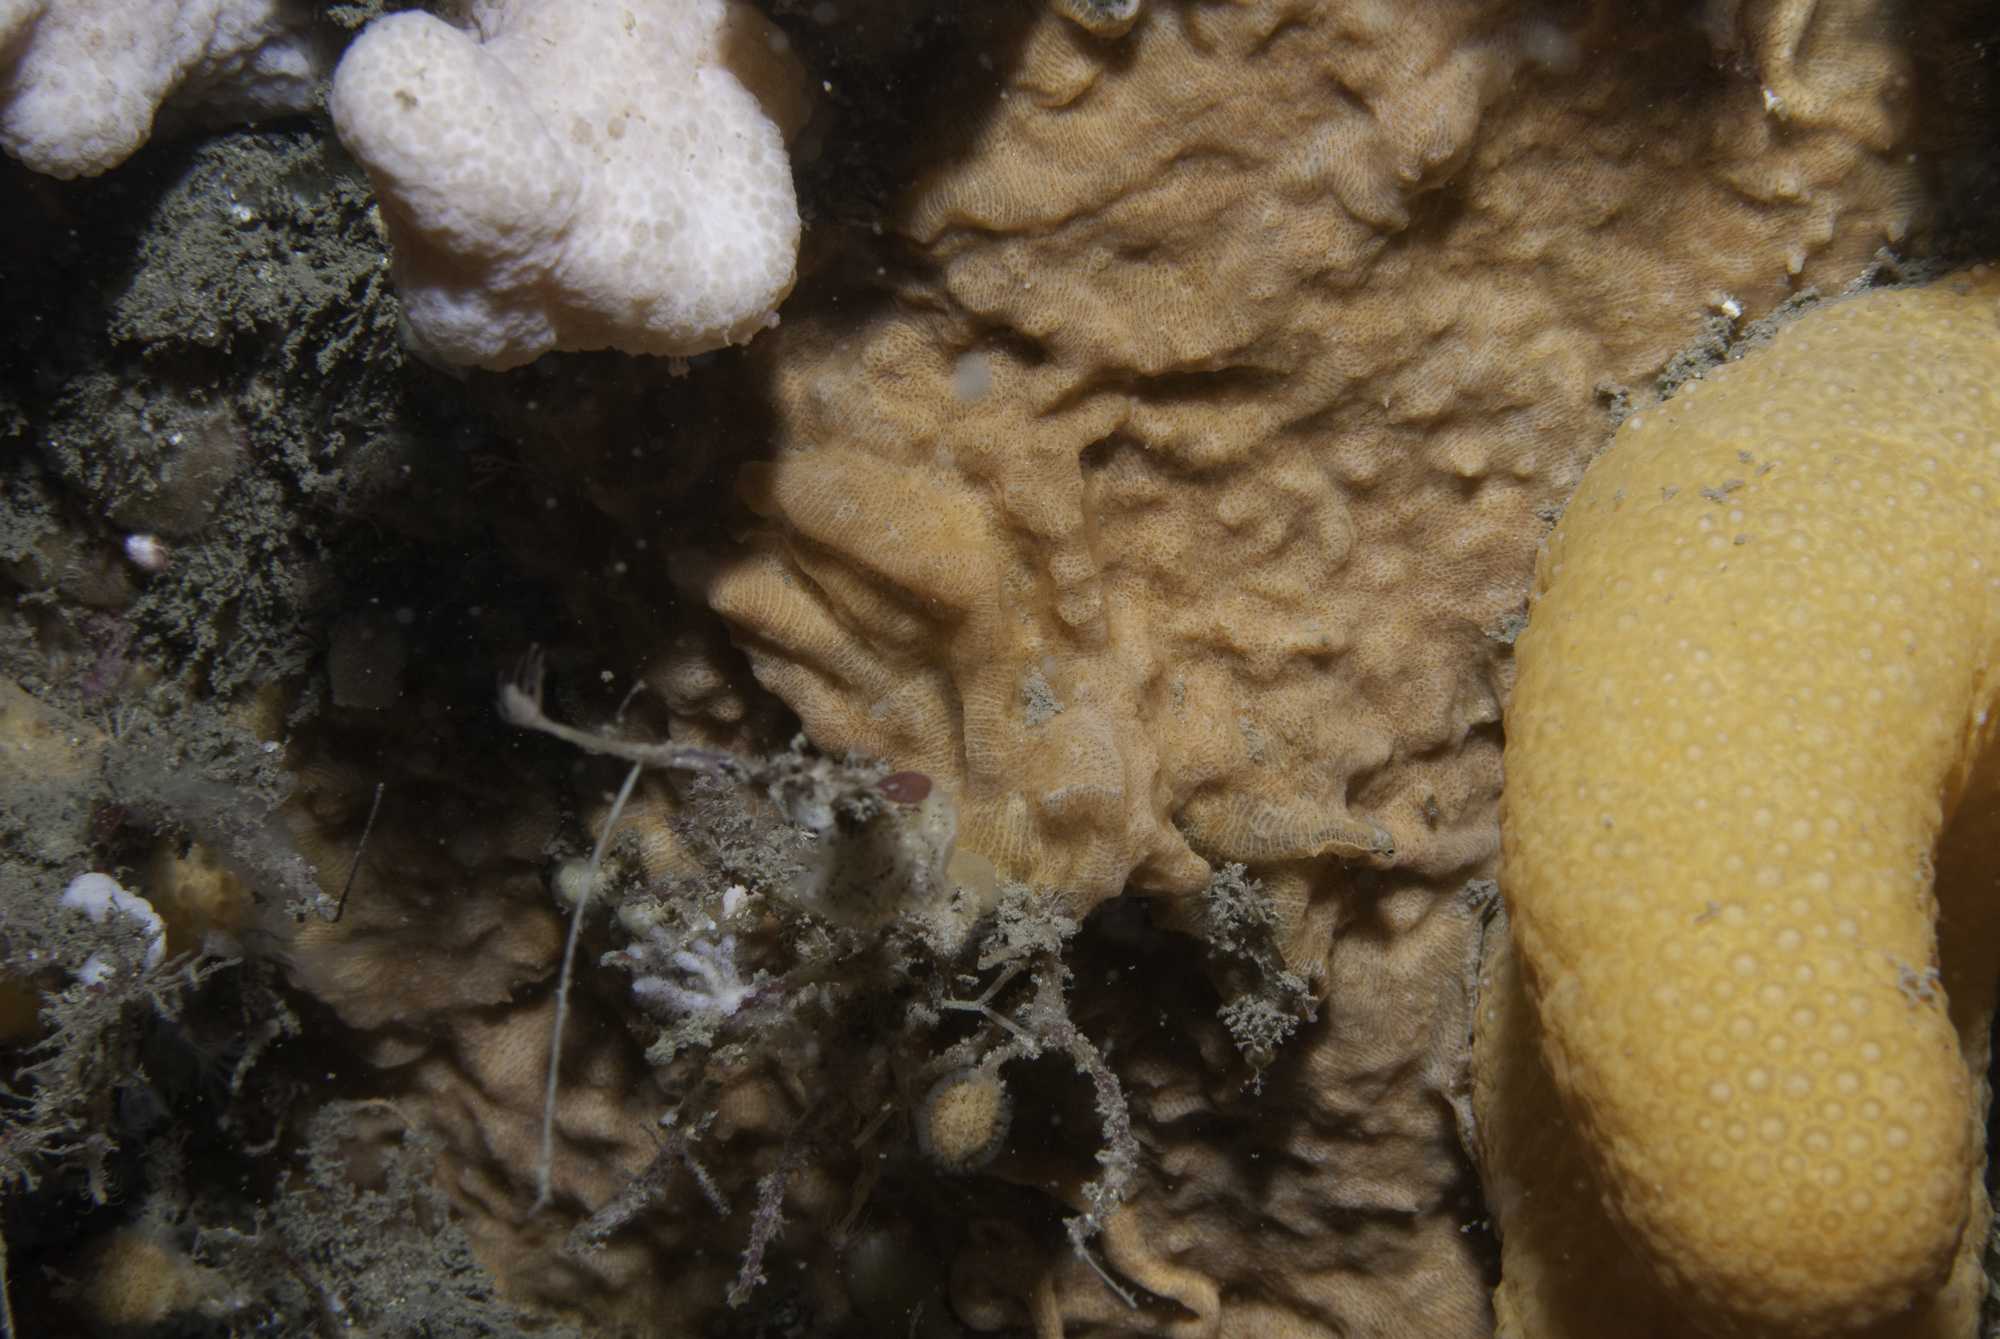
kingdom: Animalia
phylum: Bryozoa
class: Gymnolaemata
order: Cheilostomatida
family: Smittinidae
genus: Parasmittina
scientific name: Parasmittina trispinosa
